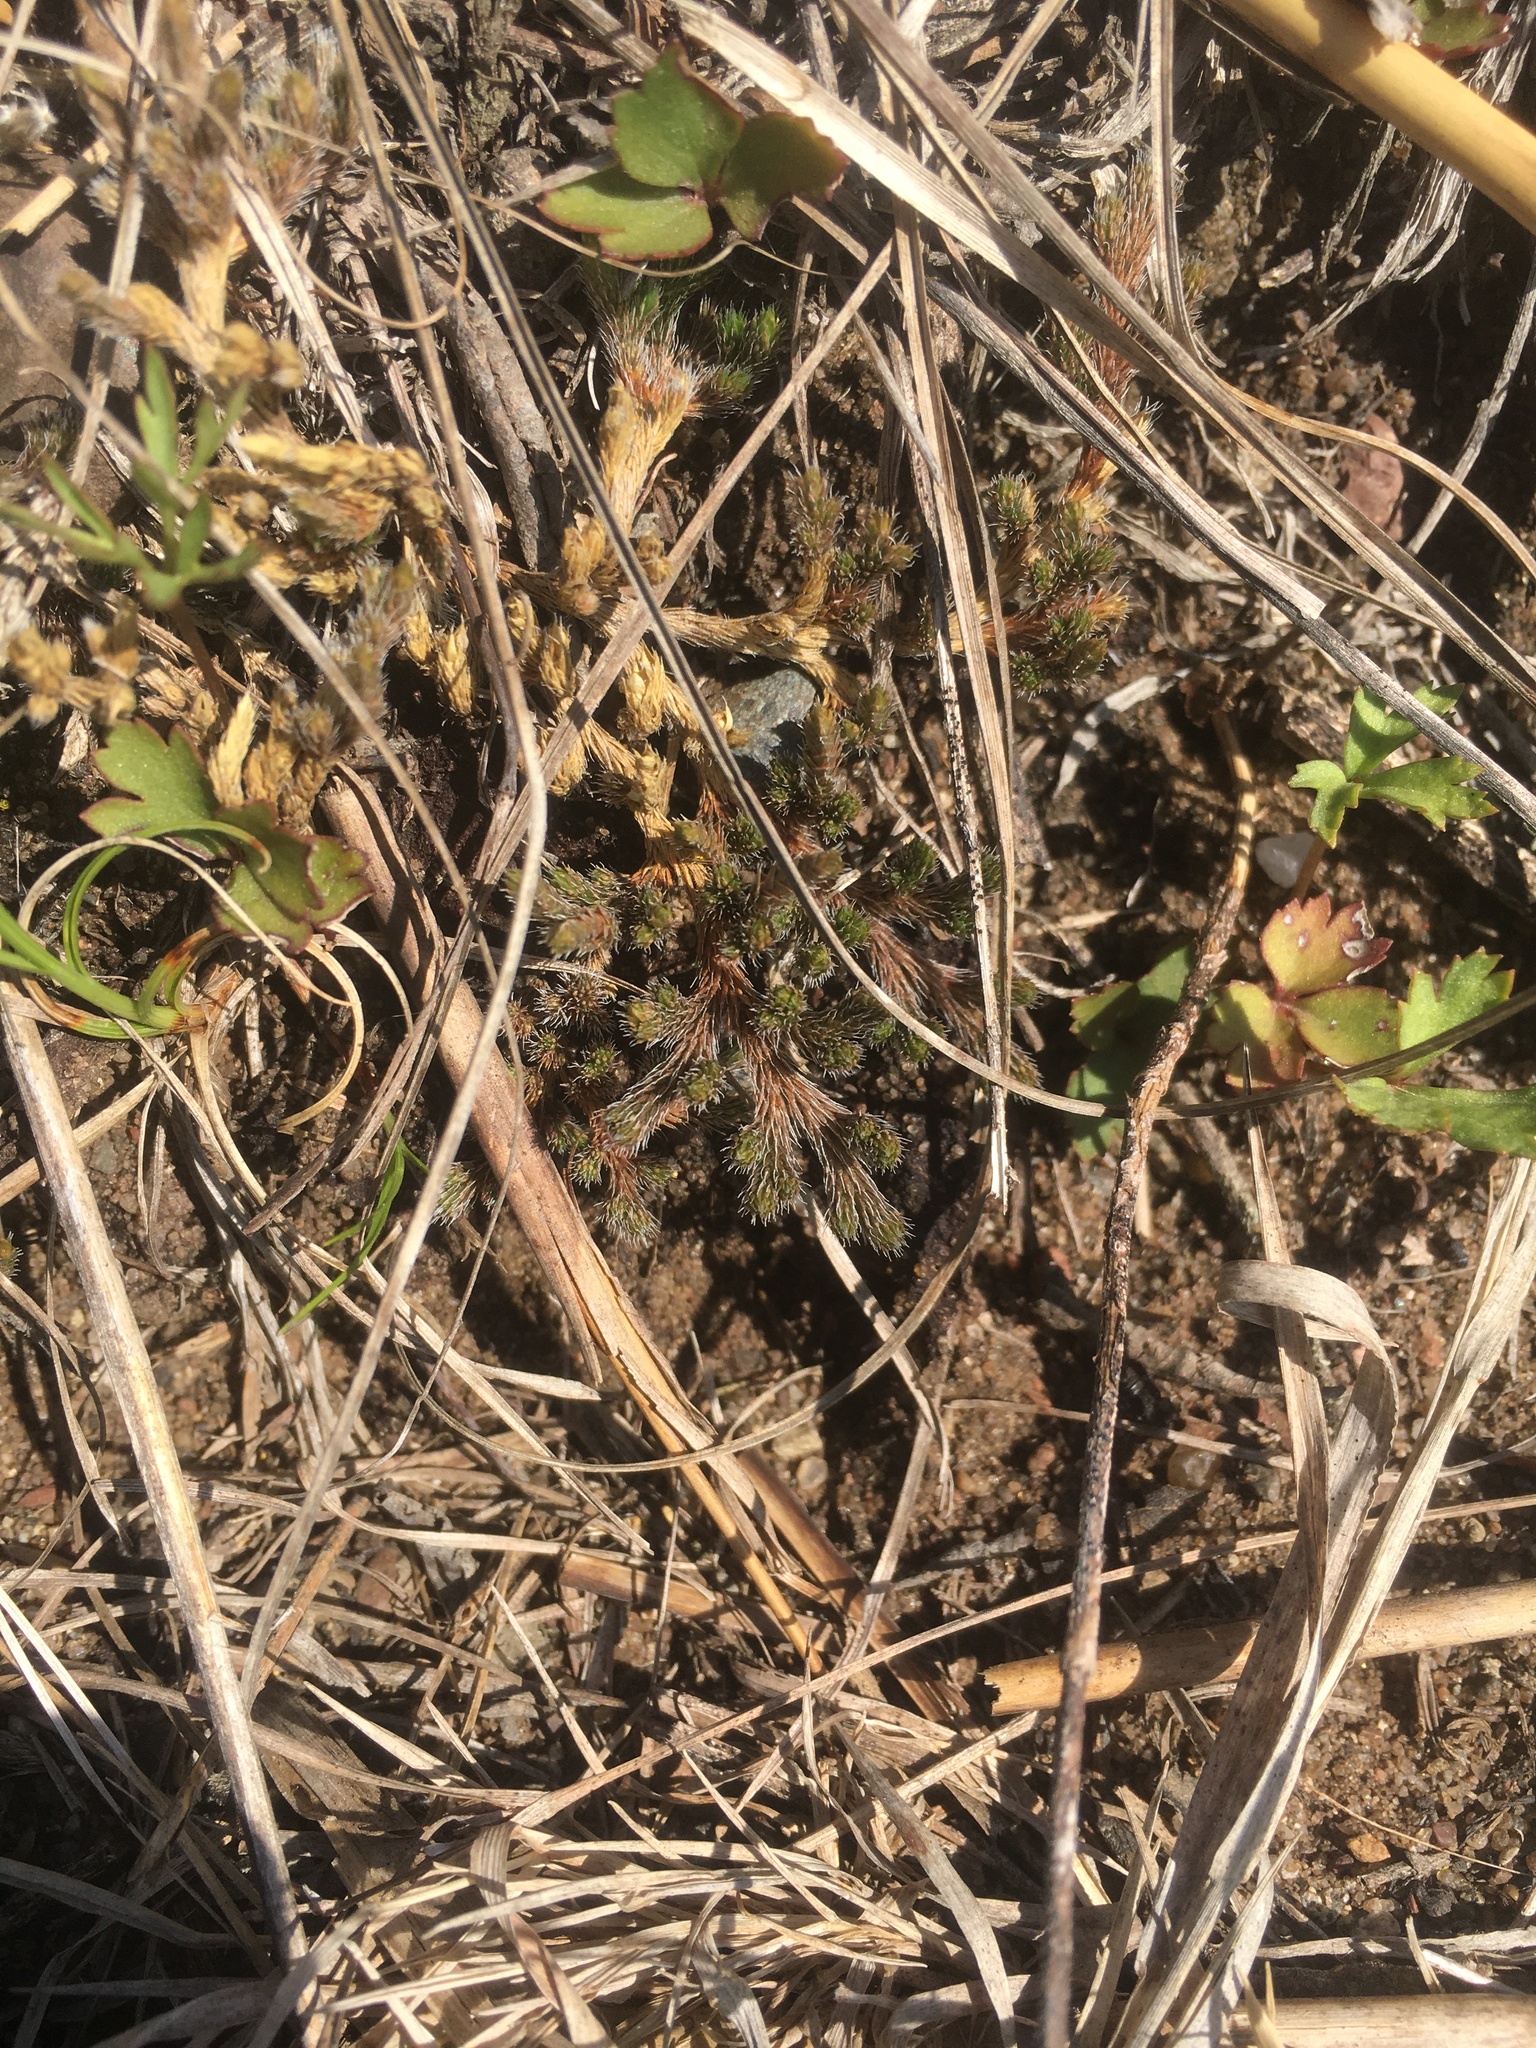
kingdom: Plantae
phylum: Tracheophyta
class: Lycopodiopsida
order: Selaginellales
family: Selaginellaceae
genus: Selaginella
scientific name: Selaginella rupestris
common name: Dwarf spikemoss
